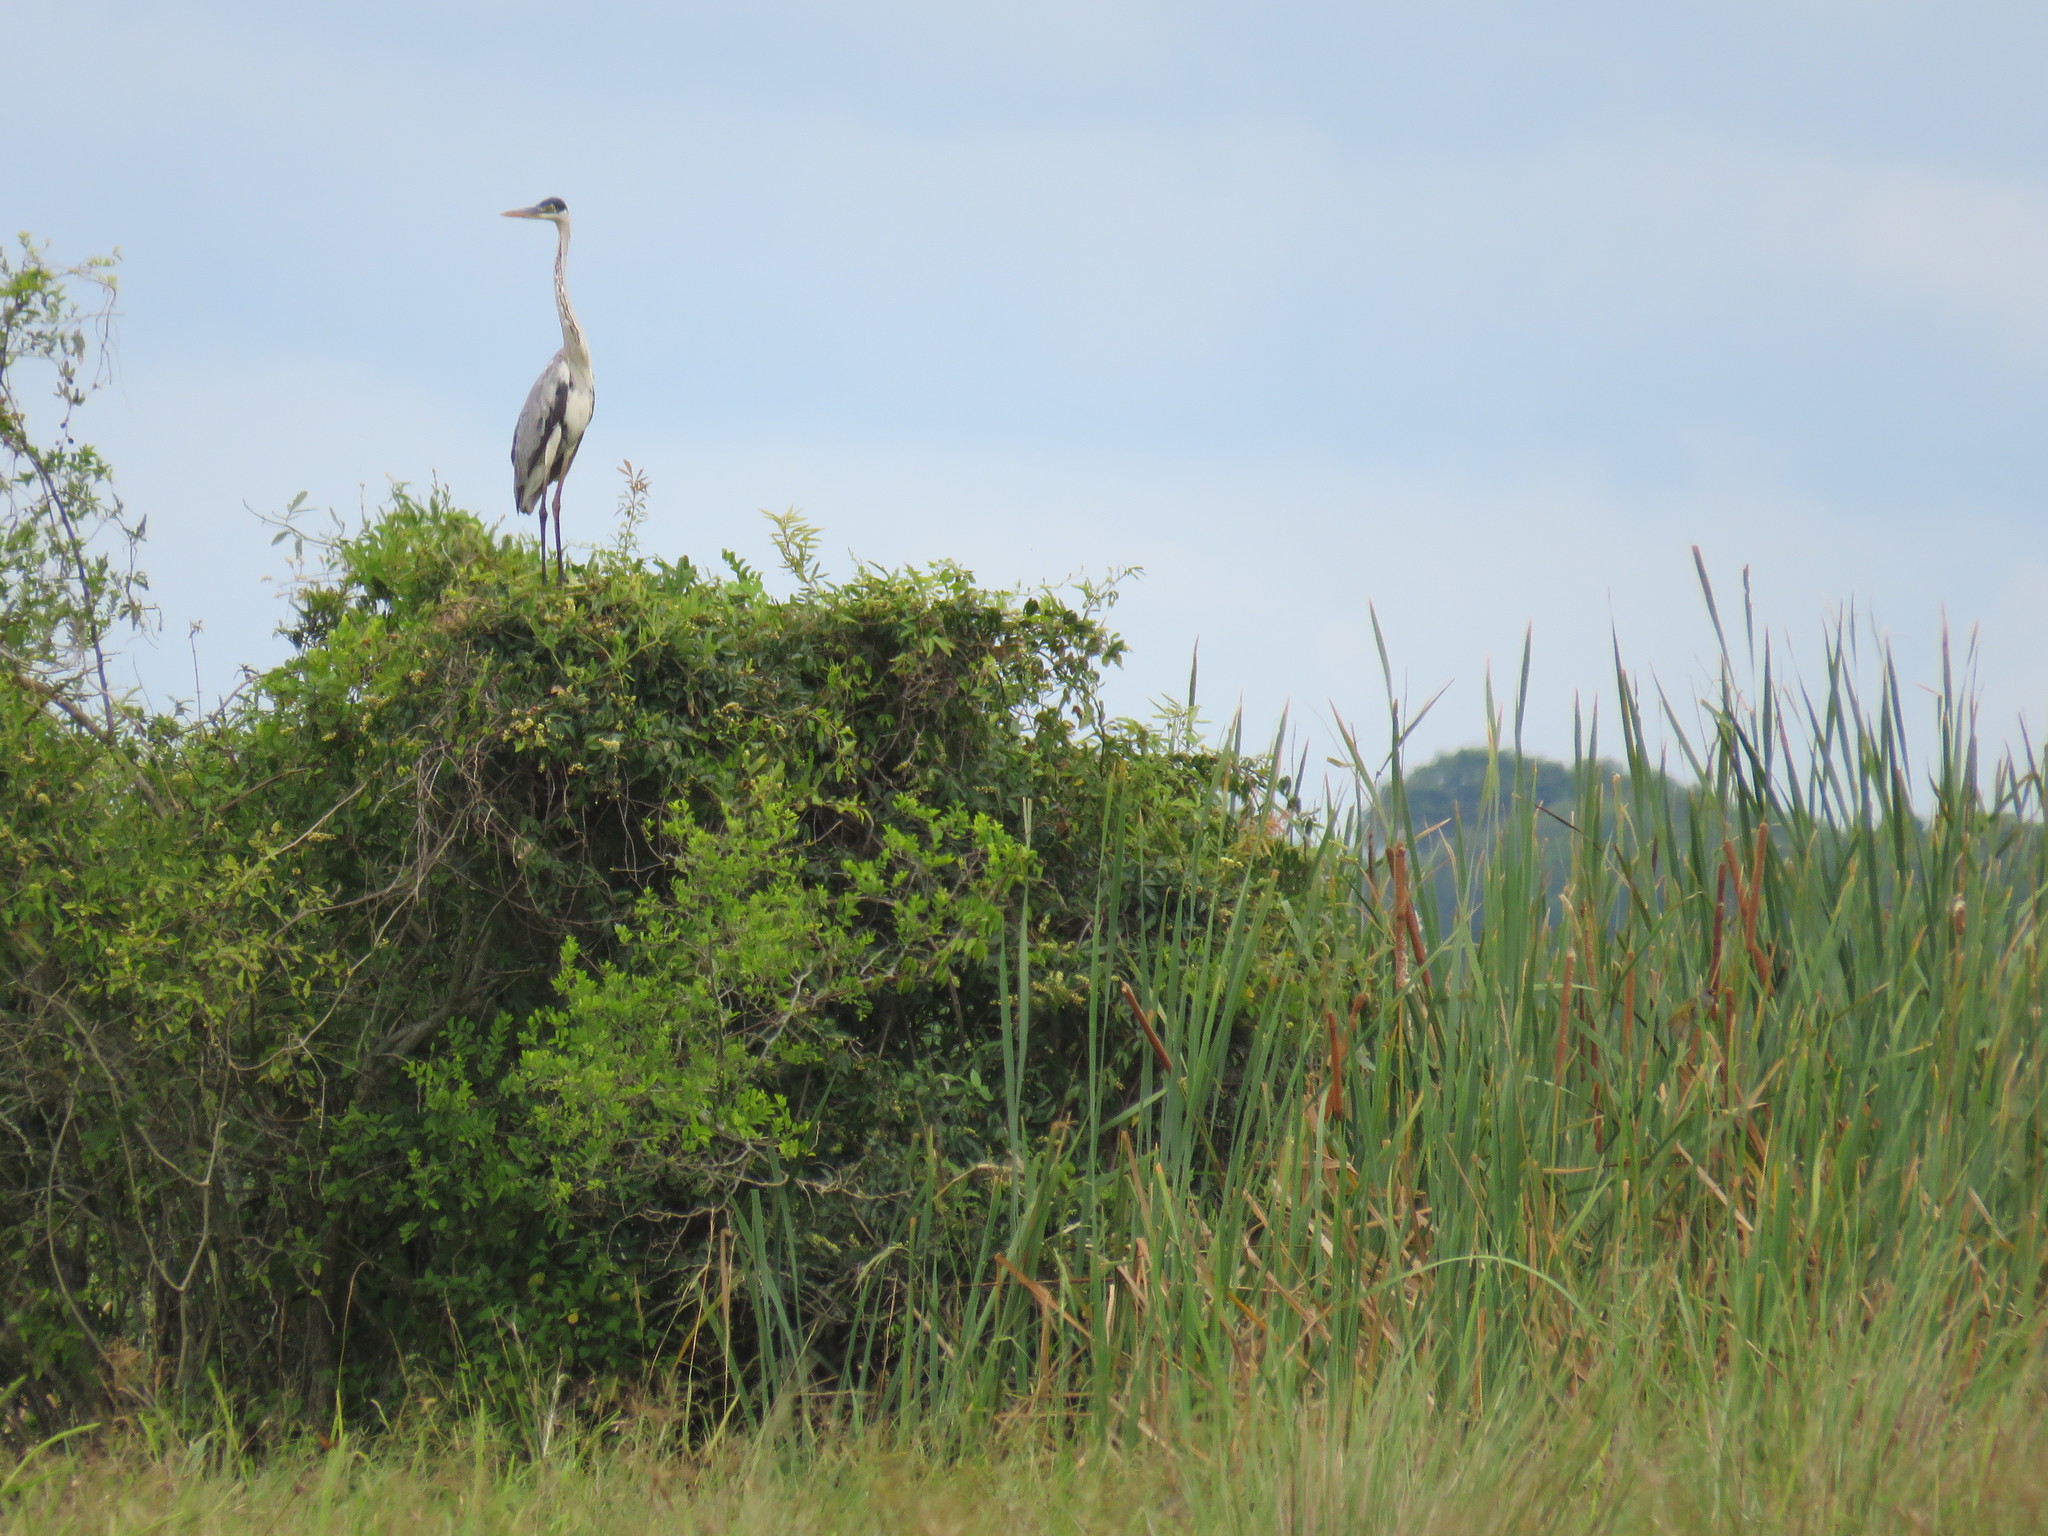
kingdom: Animalia
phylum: Chordata
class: Aves
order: Pelecaniformes
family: Ardeidae
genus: Ardea
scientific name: Ardea cocoi
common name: Cocoi heron
